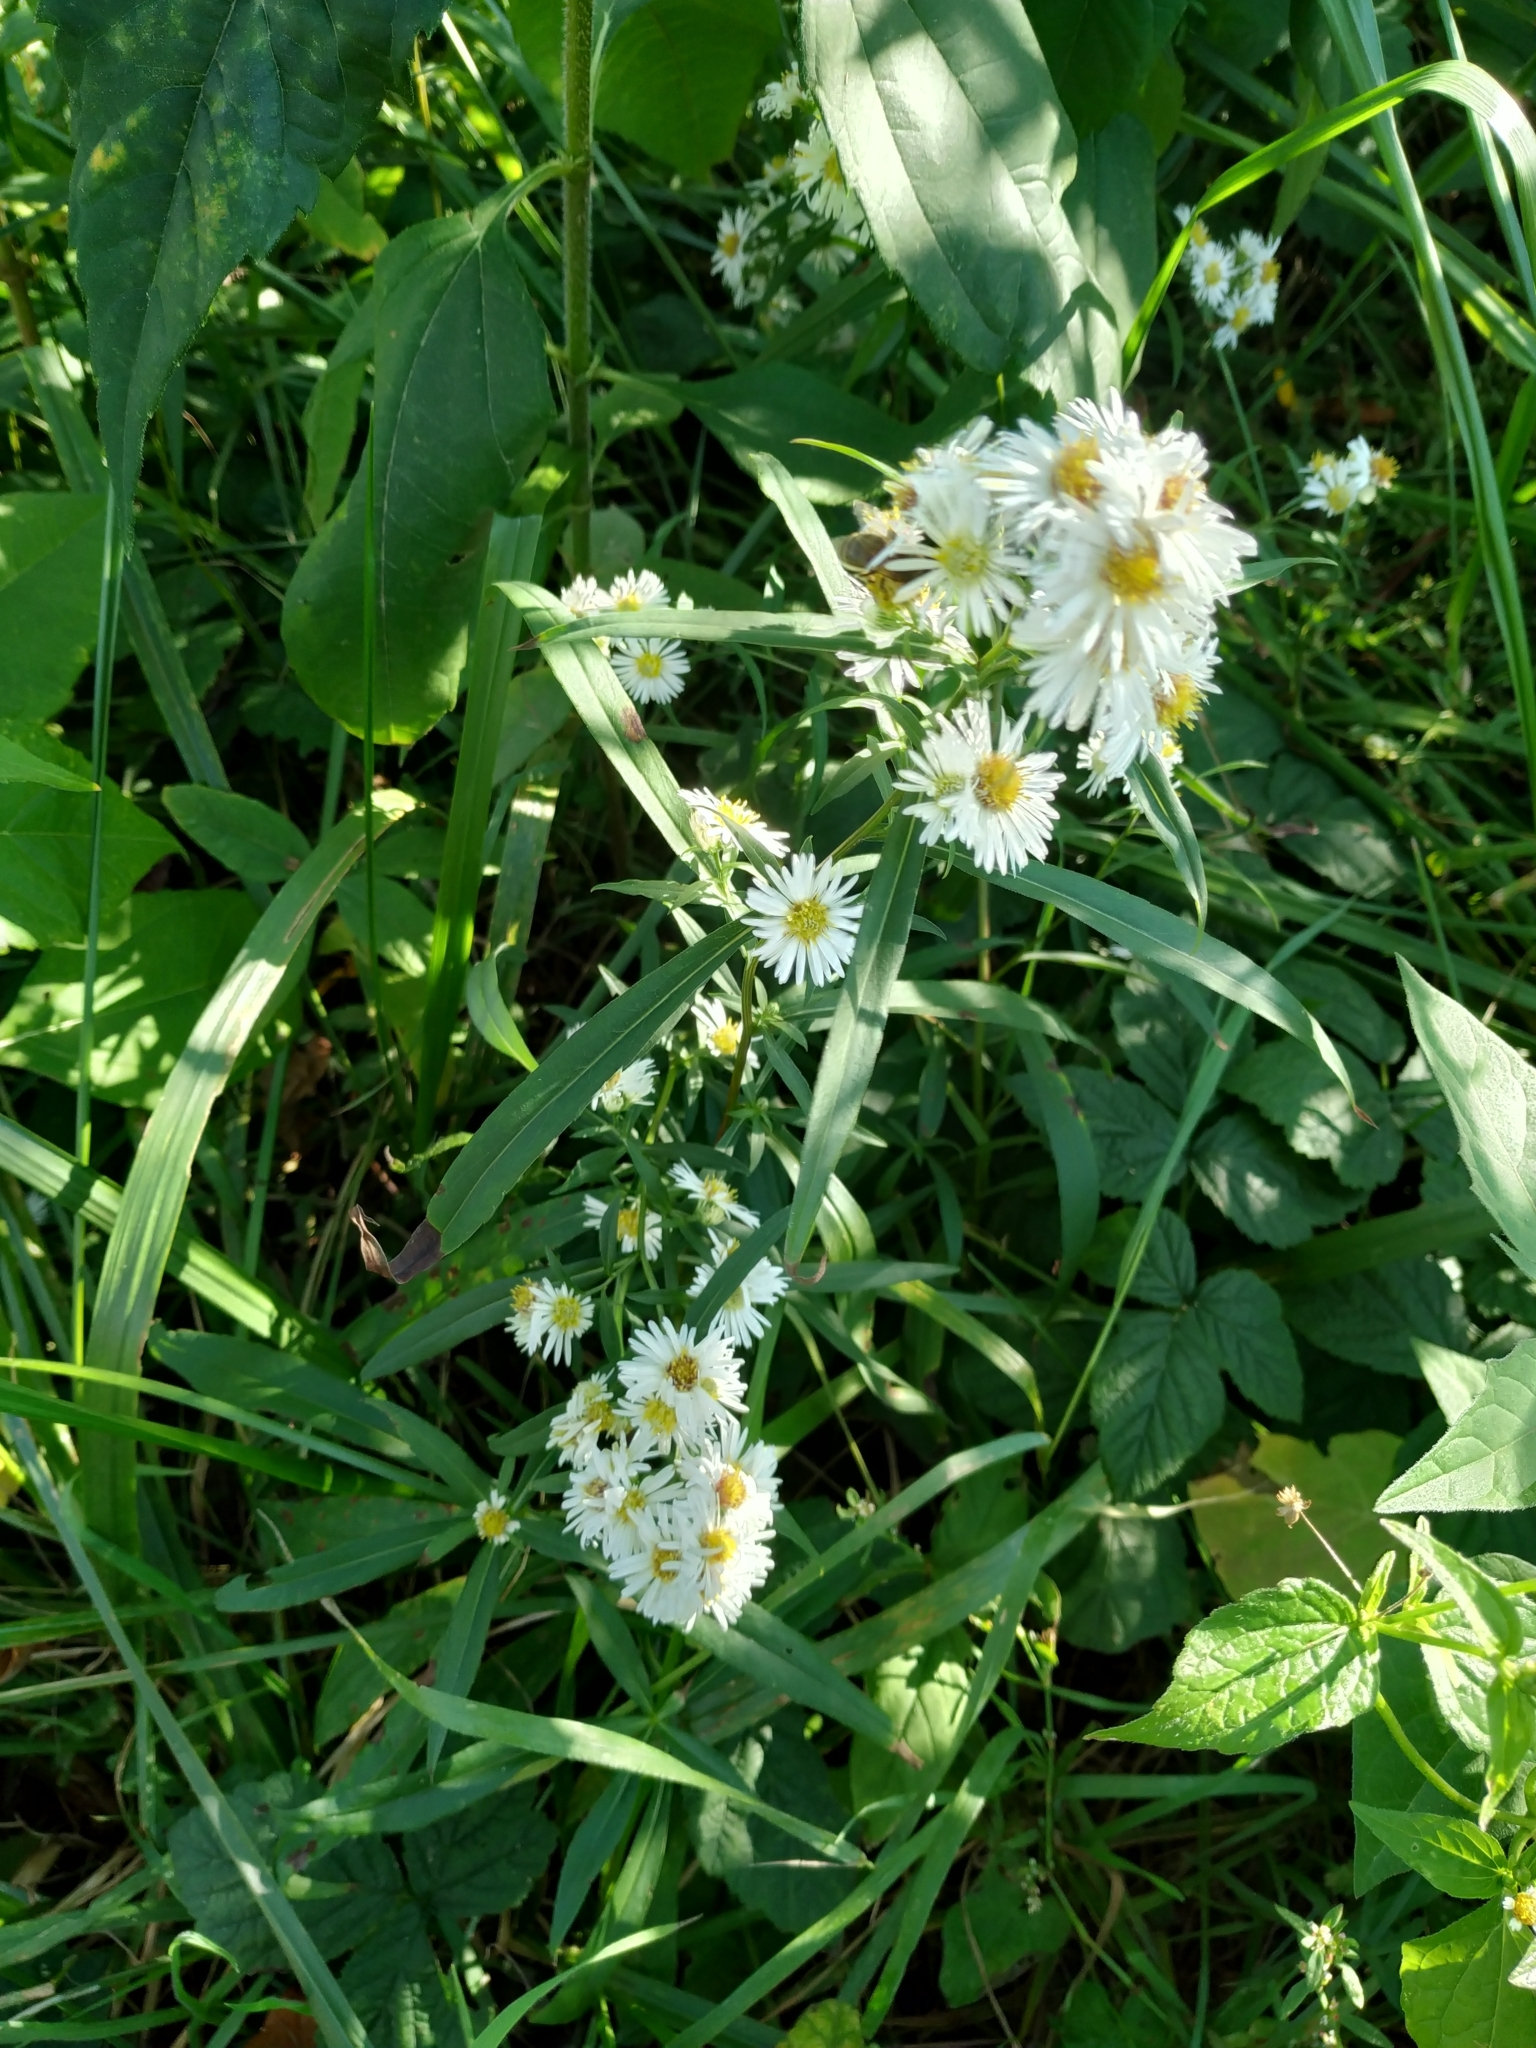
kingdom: Plantae
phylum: Tracheophyta
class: Magnoliopsida
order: Asterales
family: Asteraceae
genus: Symphyotrichum
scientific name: Symphyotrichum lanceolatum
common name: Panicled aster
